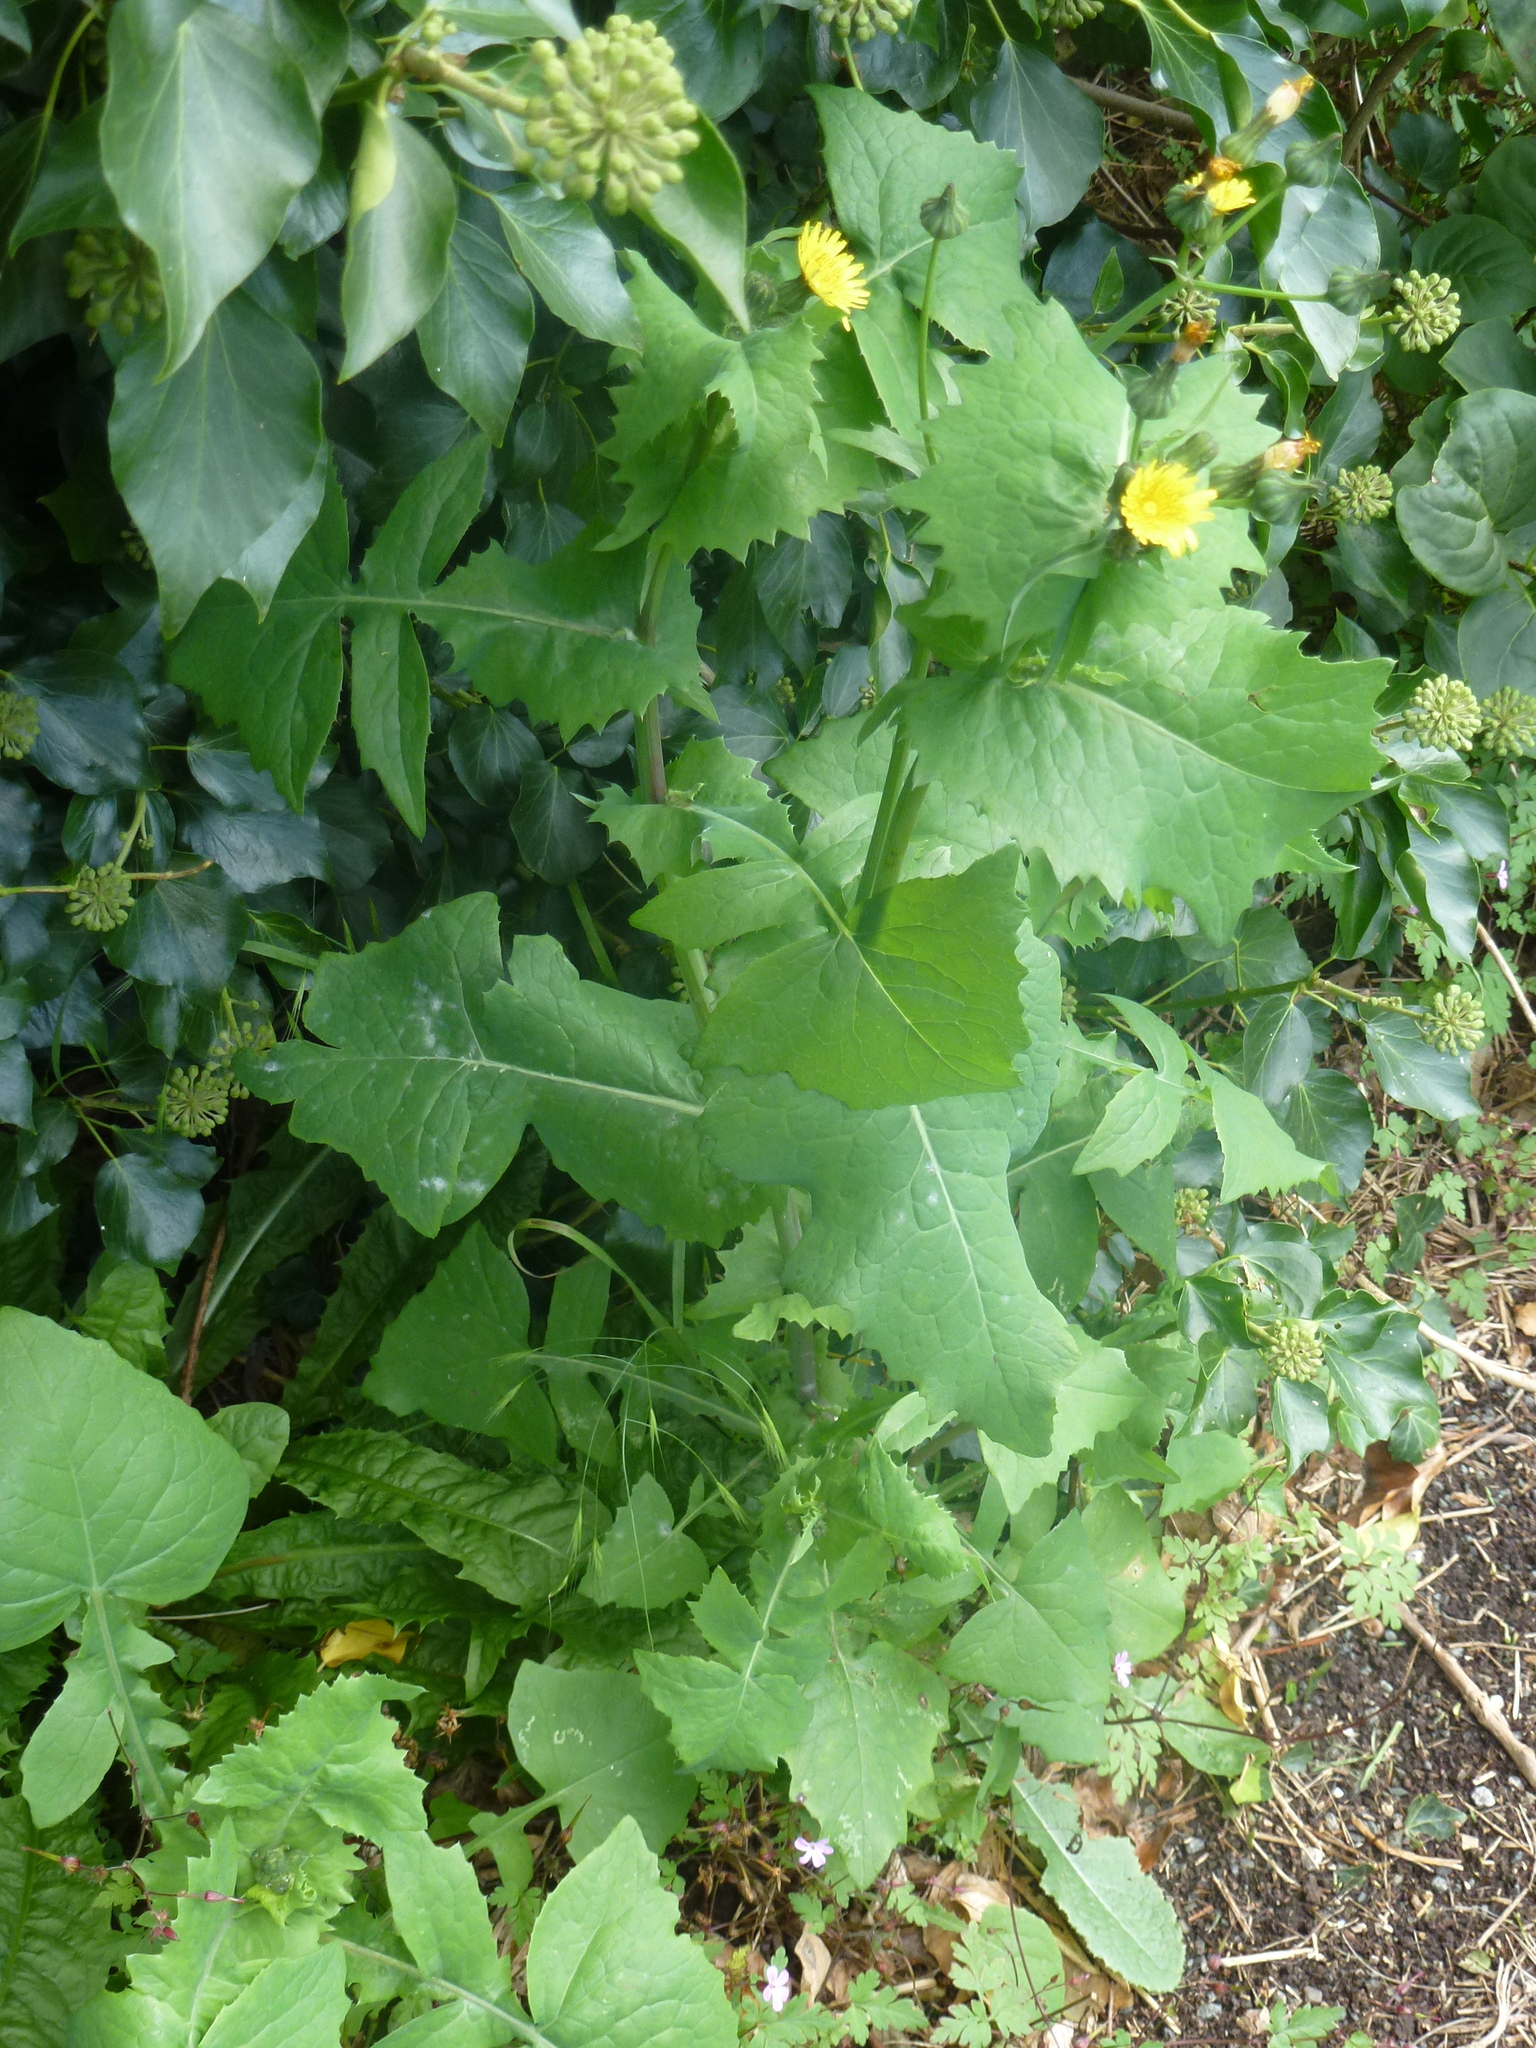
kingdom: Plantae
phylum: Tracheophyta
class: Magnoliopsida
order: Asterales
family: Asteraceae
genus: Sonchus
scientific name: Sonchus oleraceus
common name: Common sowthistle
